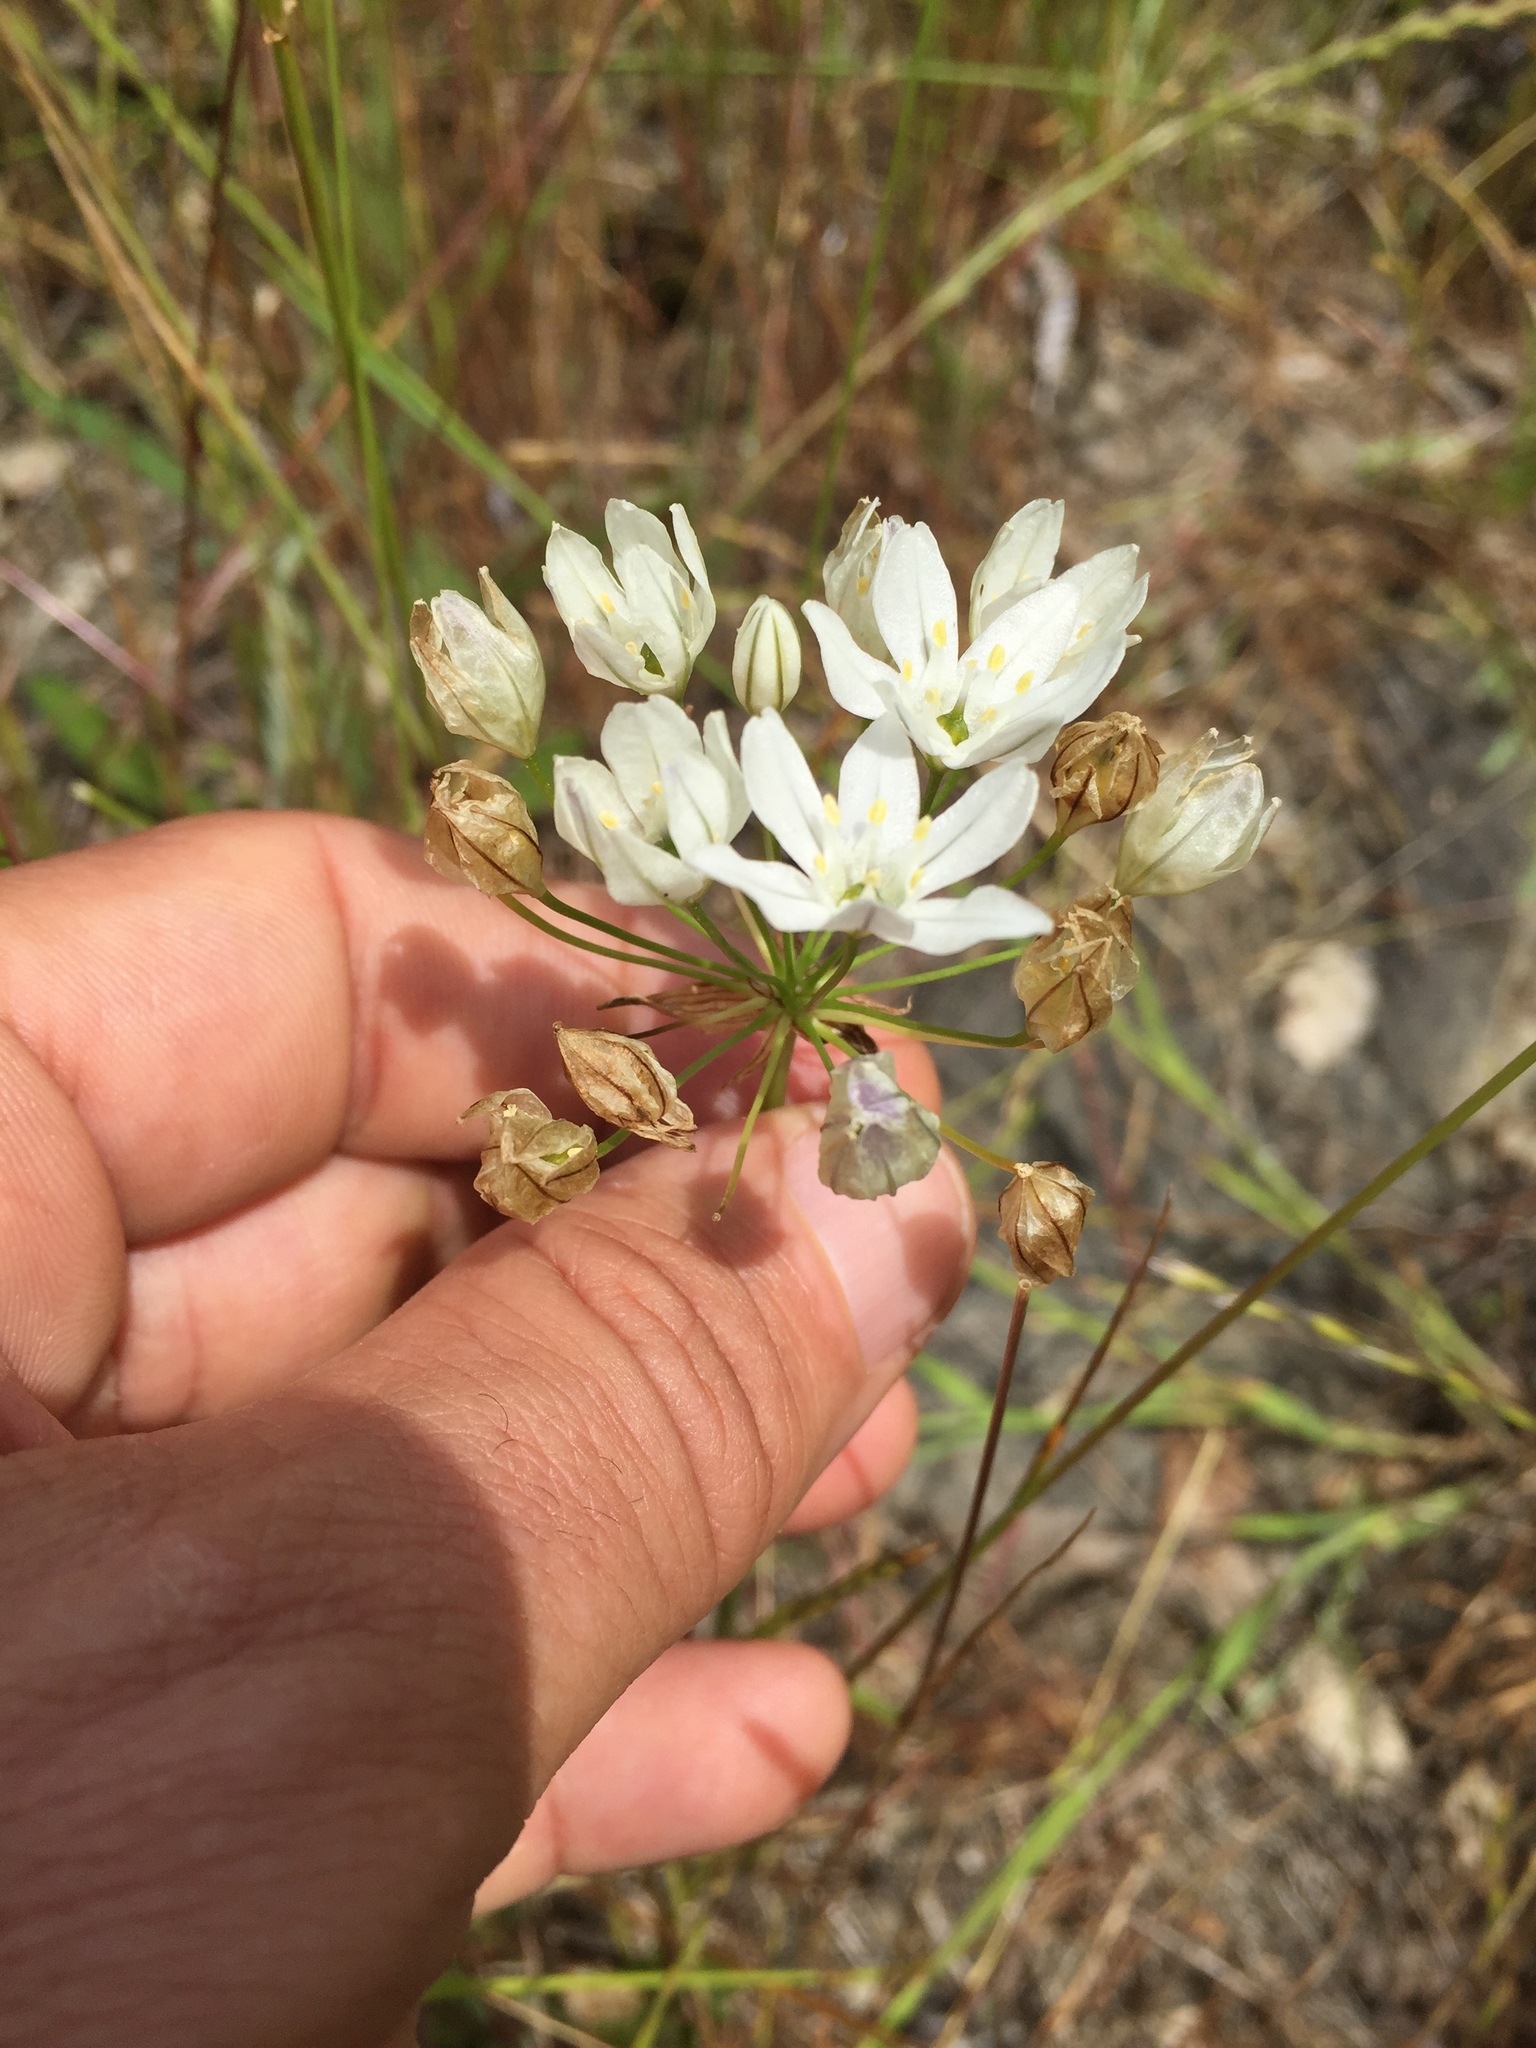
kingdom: Plantae
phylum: Tracheophyta
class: Liliopsida
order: Asparagales
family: Asparagaceae
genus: Triteleia
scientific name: Triteleia hyacinthina
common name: White brodiaea
